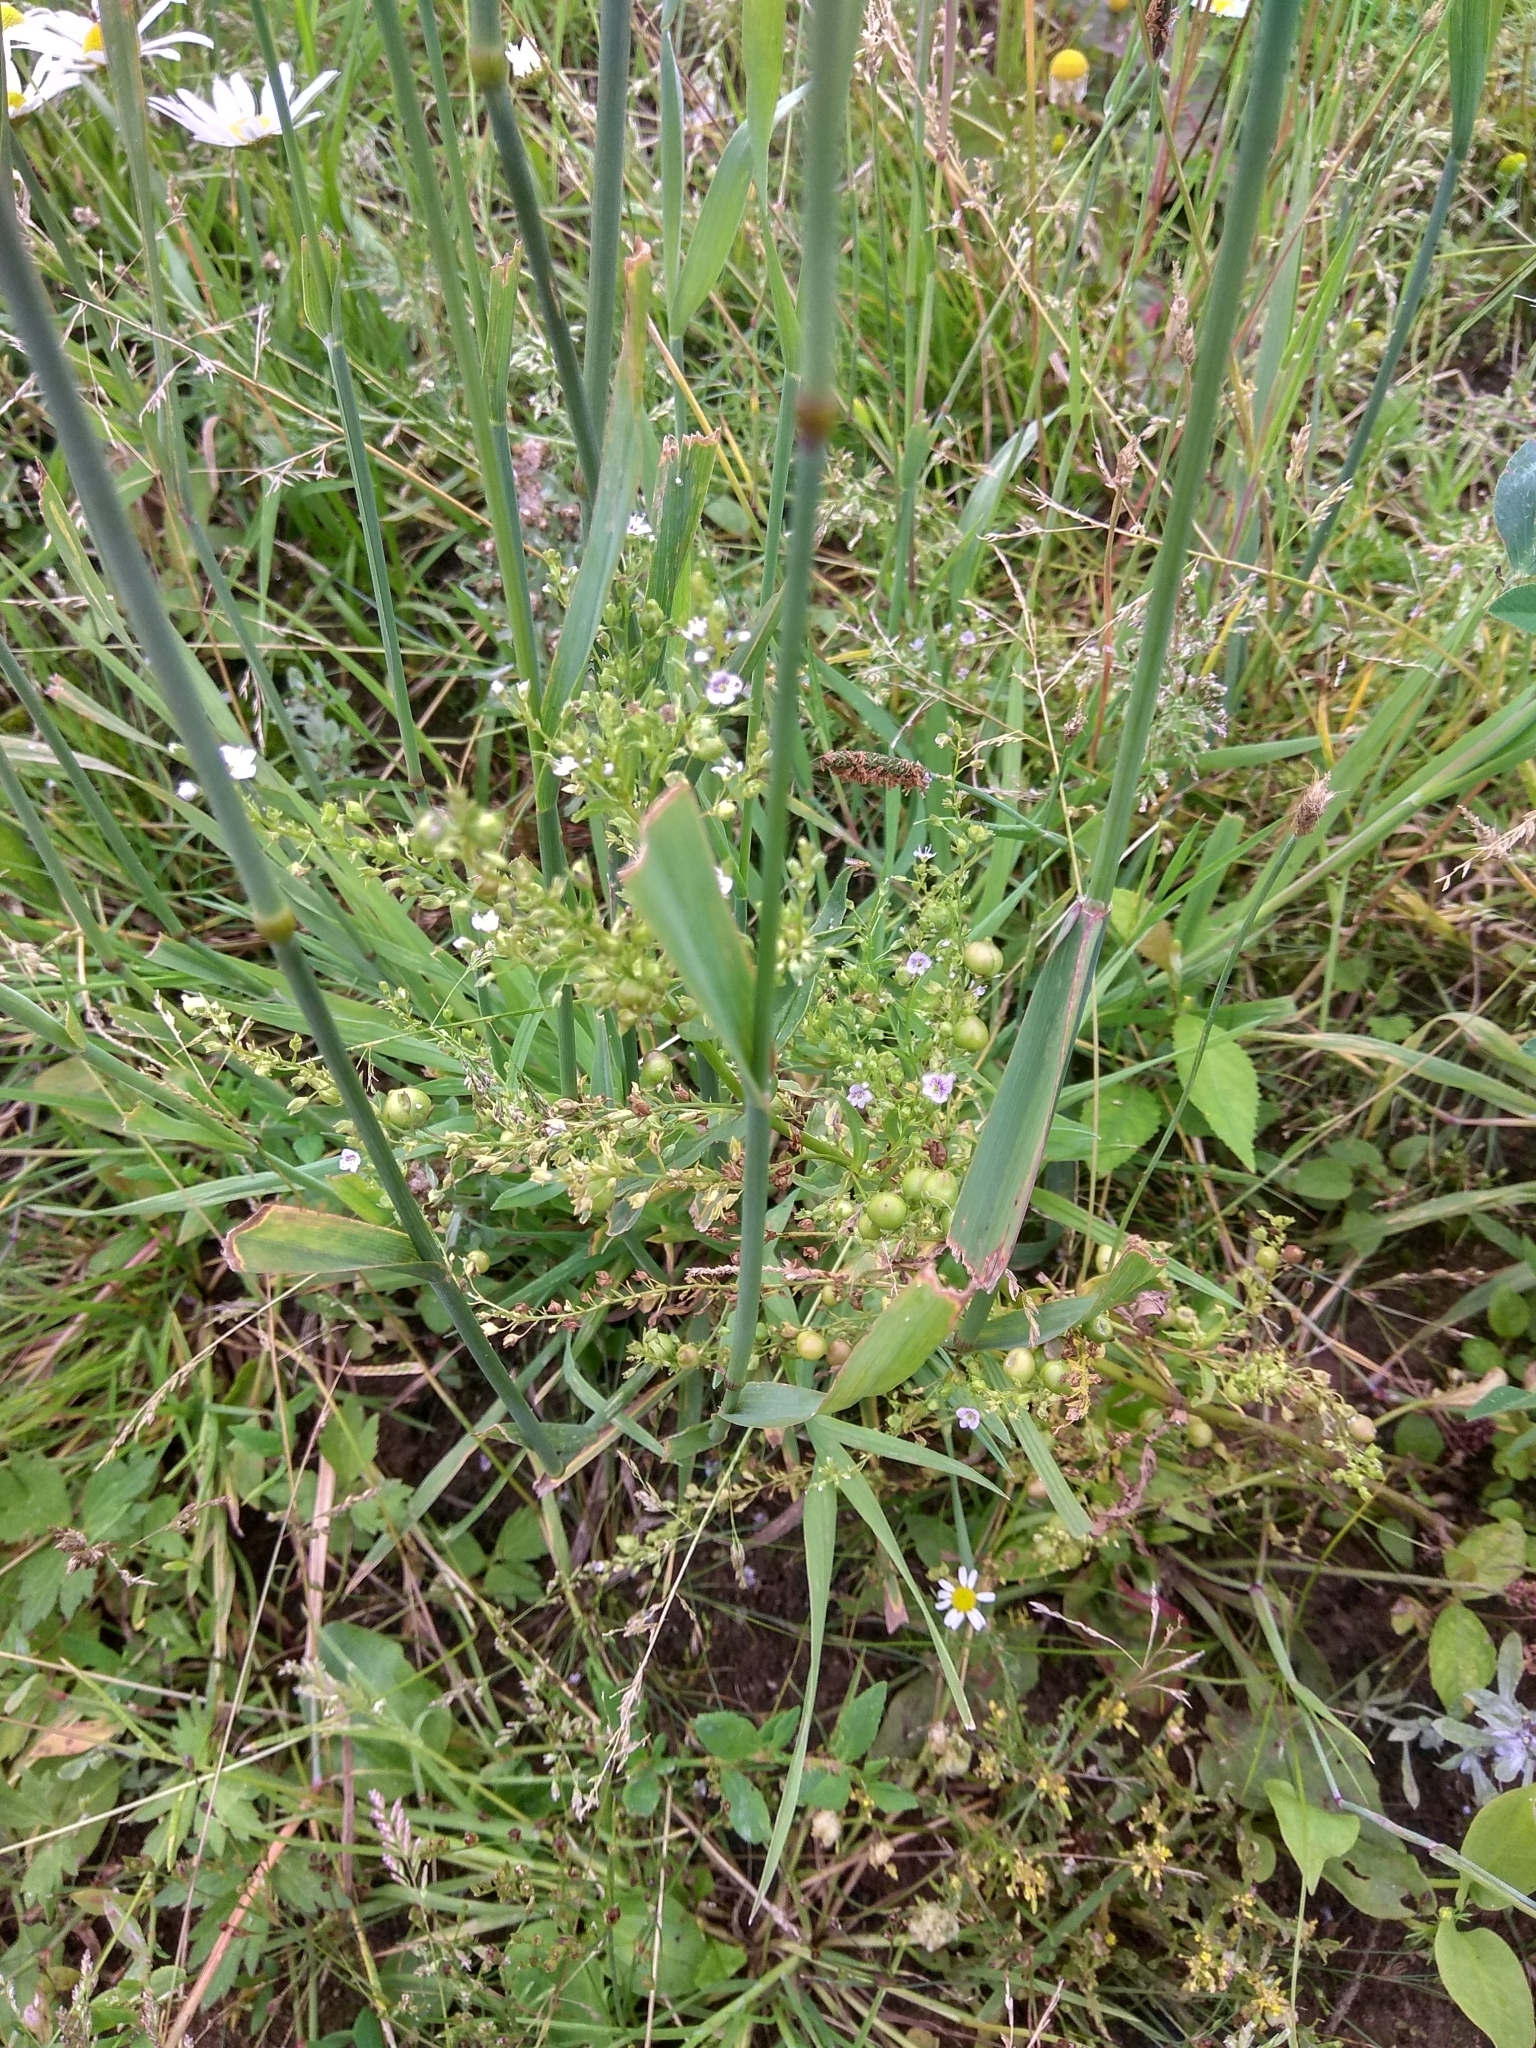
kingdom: Plantae
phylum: Tracheophyta
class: Liliopsida
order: Poales
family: Poaceae
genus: Phleum
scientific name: Phleum pratense
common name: Timothy grass
